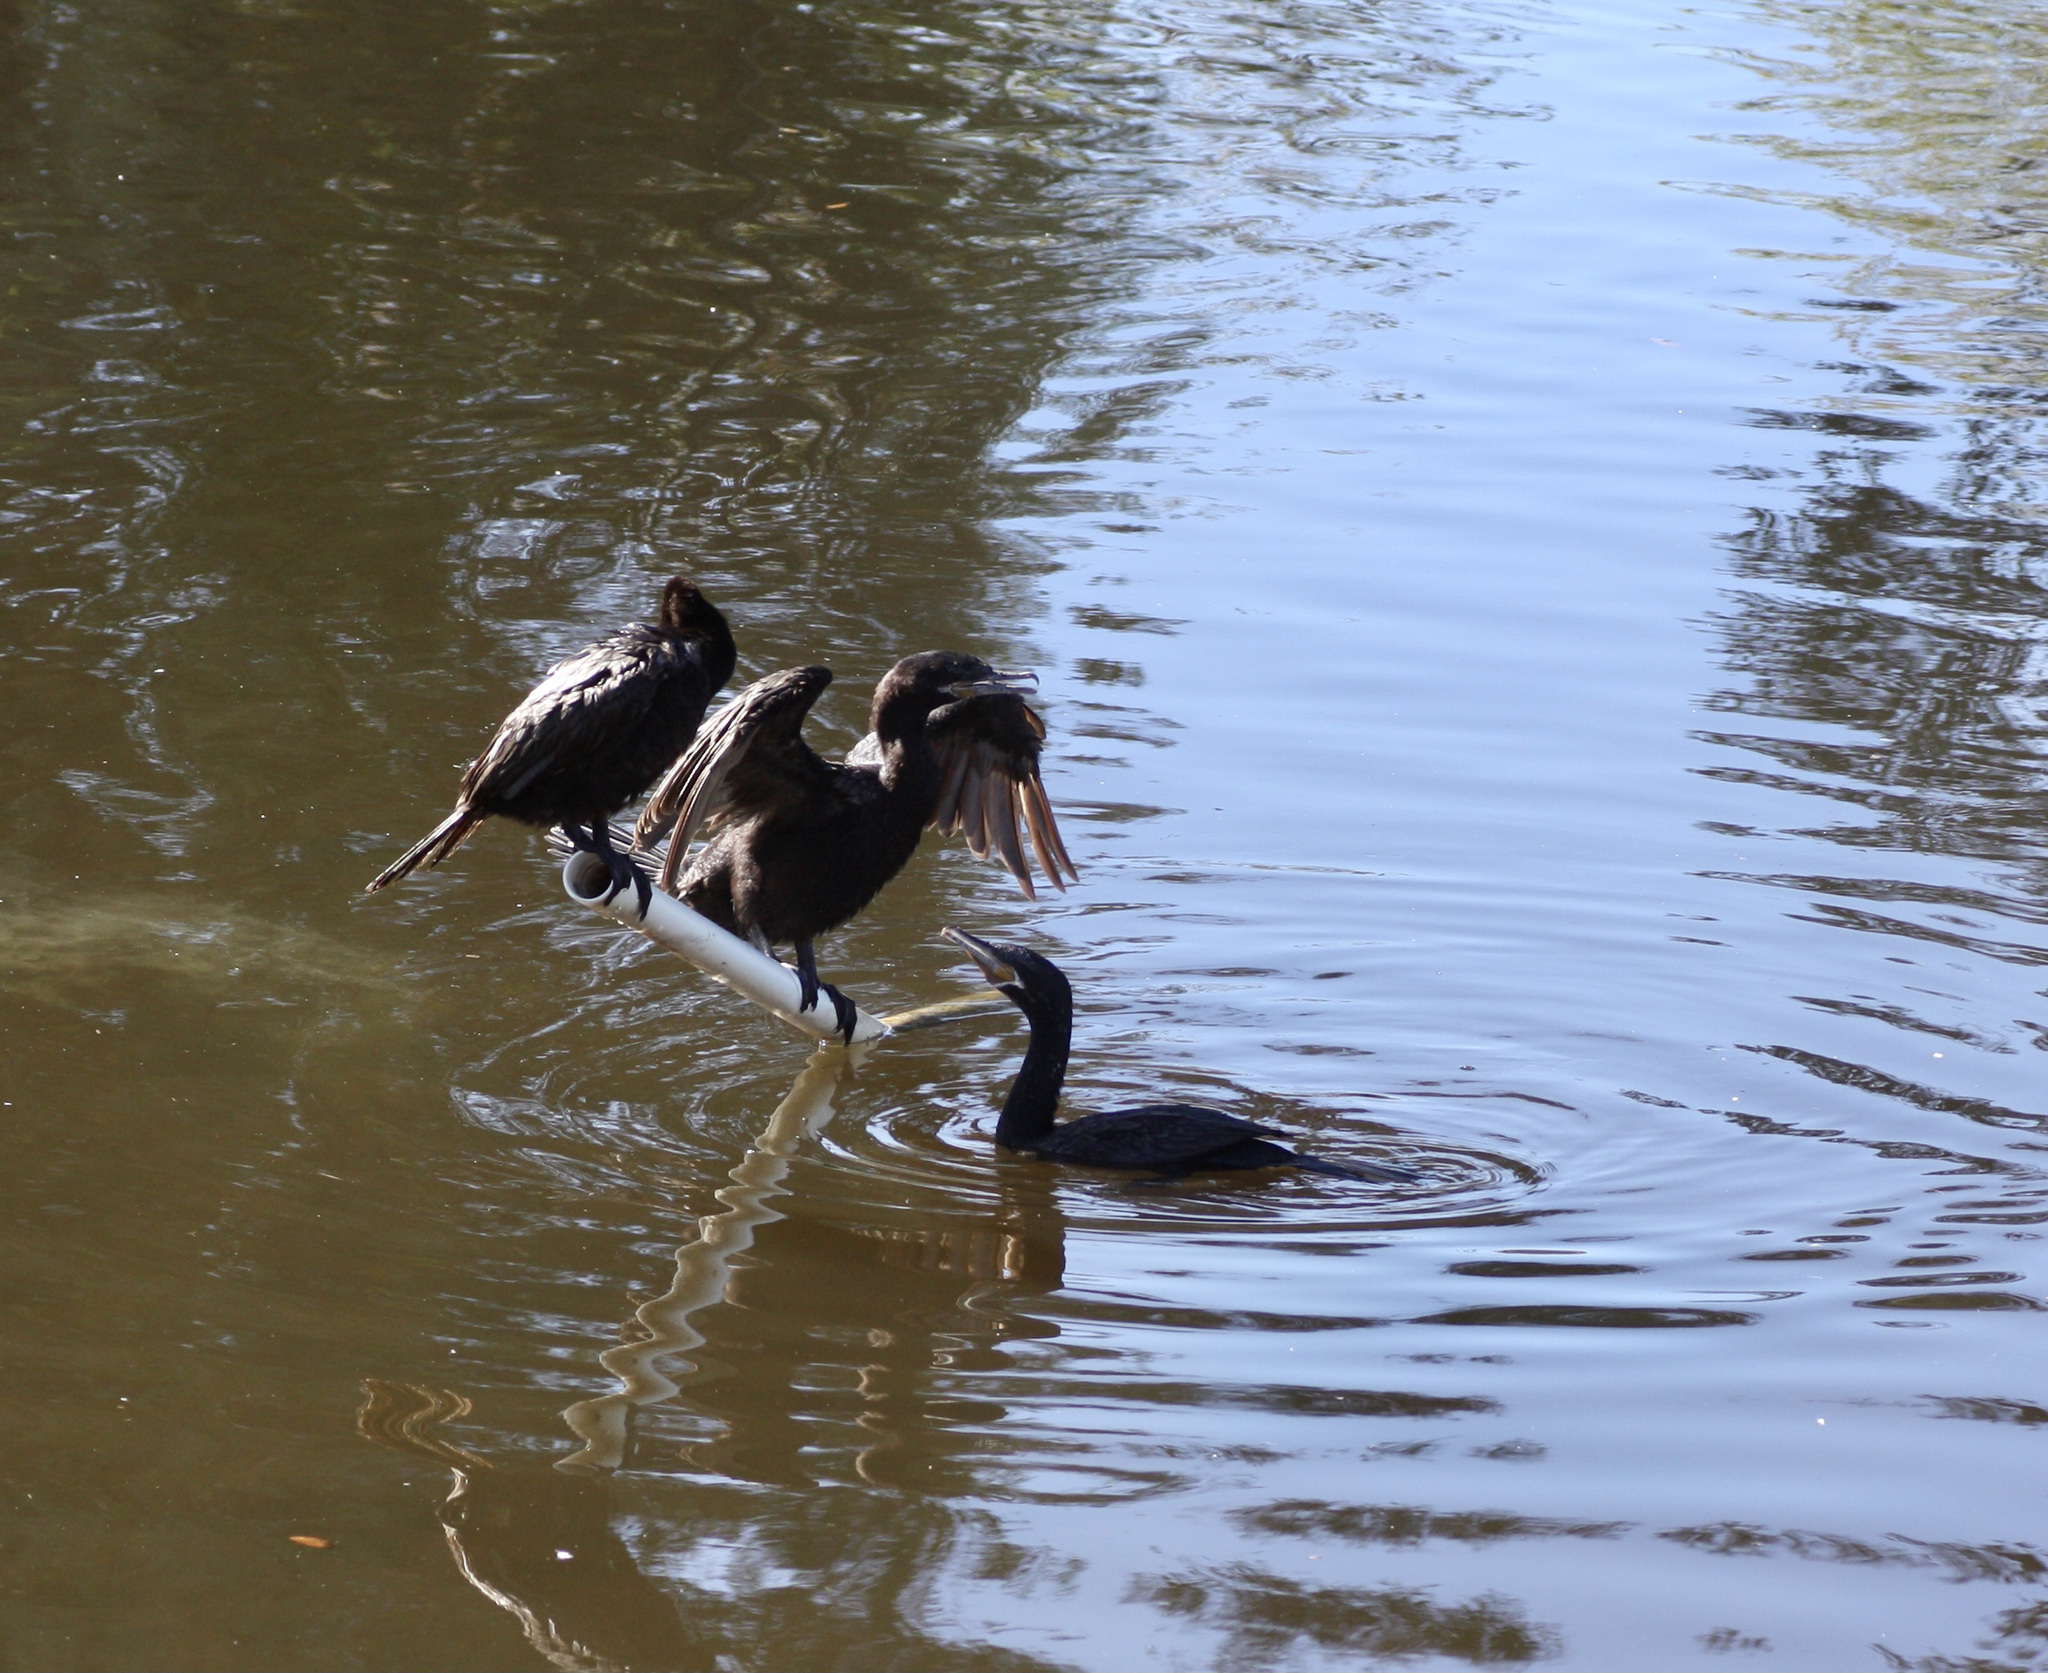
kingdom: Animalia
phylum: Chordata
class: Aves
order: Suliformes
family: Phalacrocoracidae
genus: Phalacrocorax
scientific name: Phalacrocorax brasilianus
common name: Neotropic cormorant
